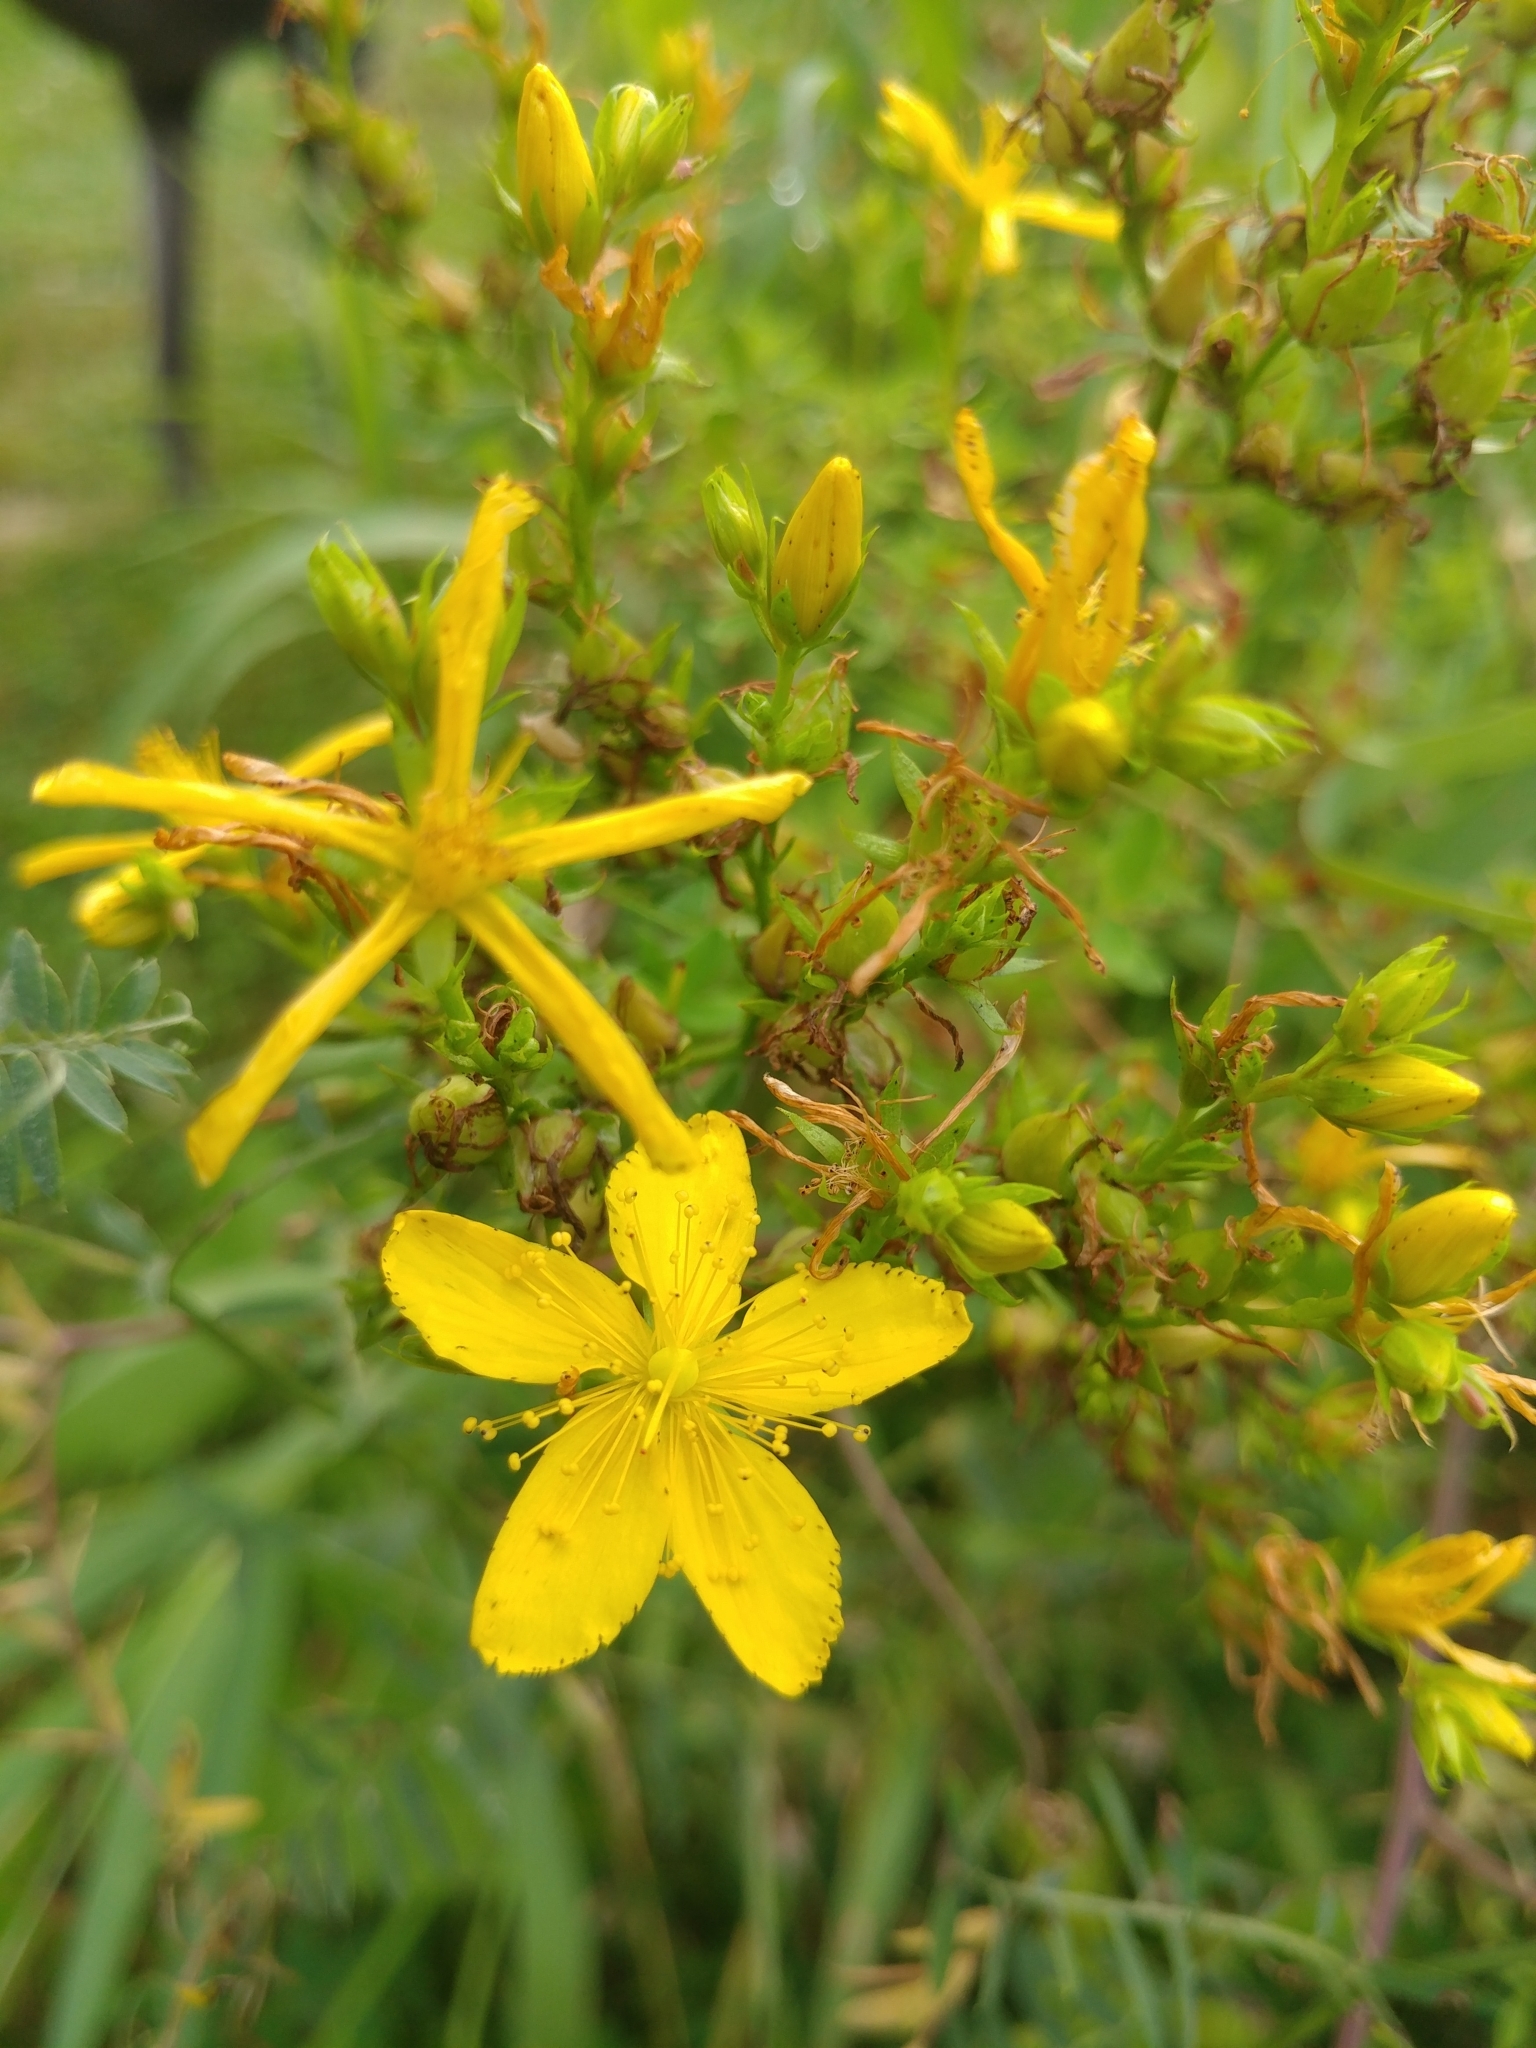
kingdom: Plantae
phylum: Tracheophyta
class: Magnoliopsida
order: Malpighiales
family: Hypericaceae
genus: Hypericum
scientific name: Hypericum perforatum
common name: Common st. johnswort
